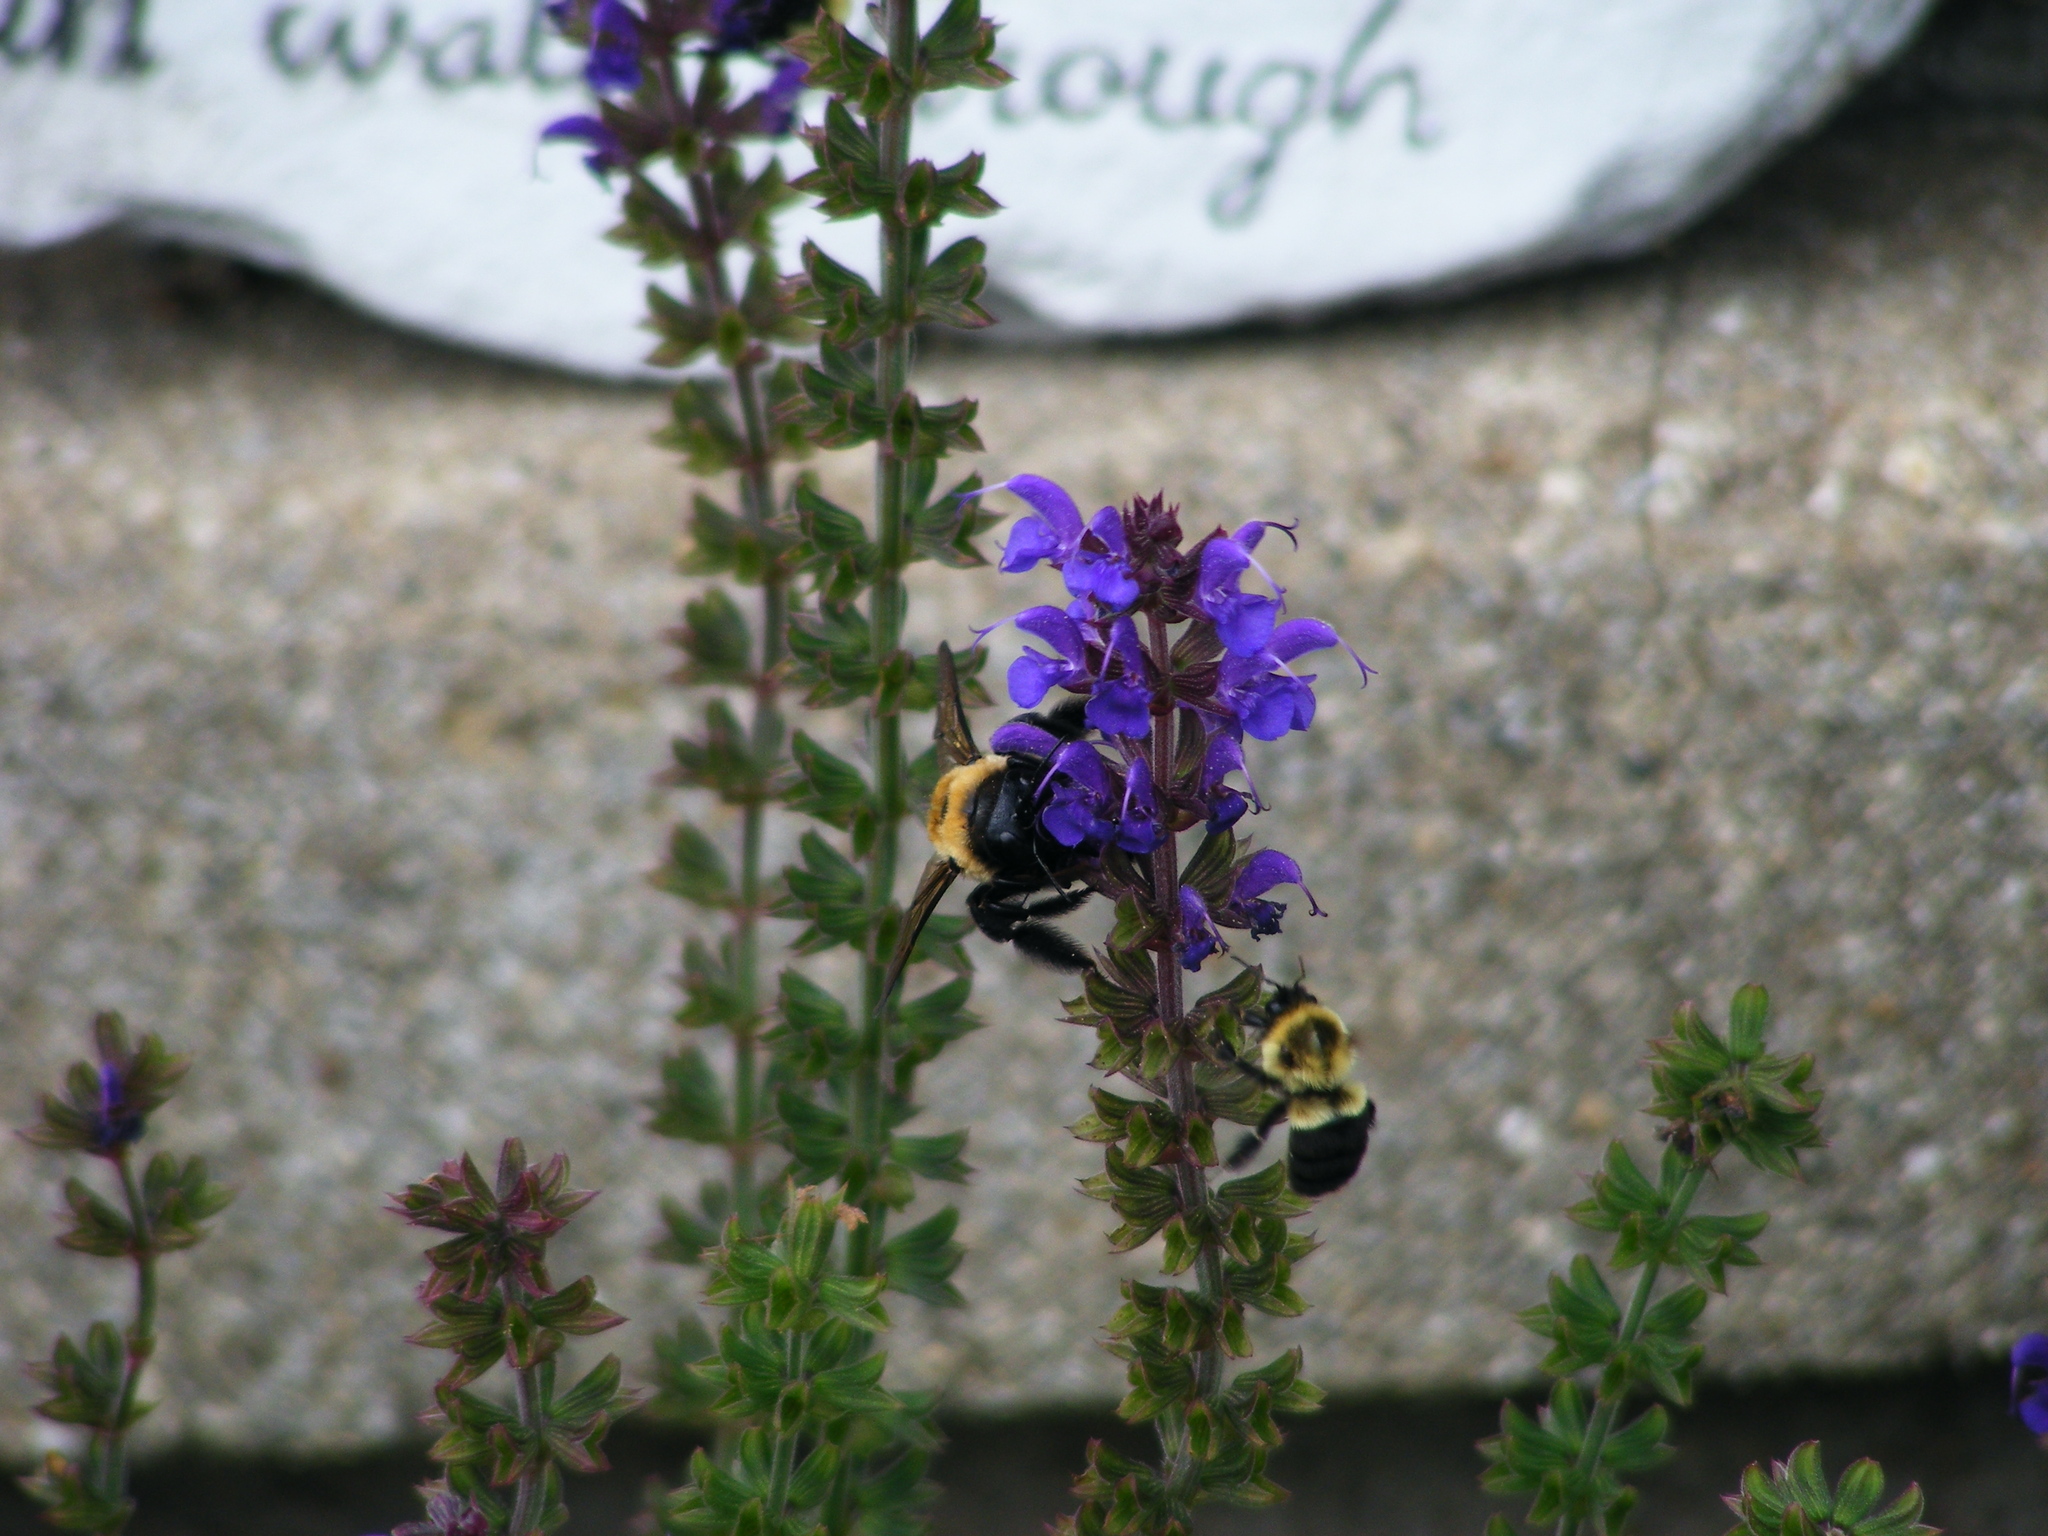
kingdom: Animalia
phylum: Arthropoda
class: Insecta
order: Hymenoptera
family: Apidae
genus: Xylocopa
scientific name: Xylocopa virginica
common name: Carpenter bee
